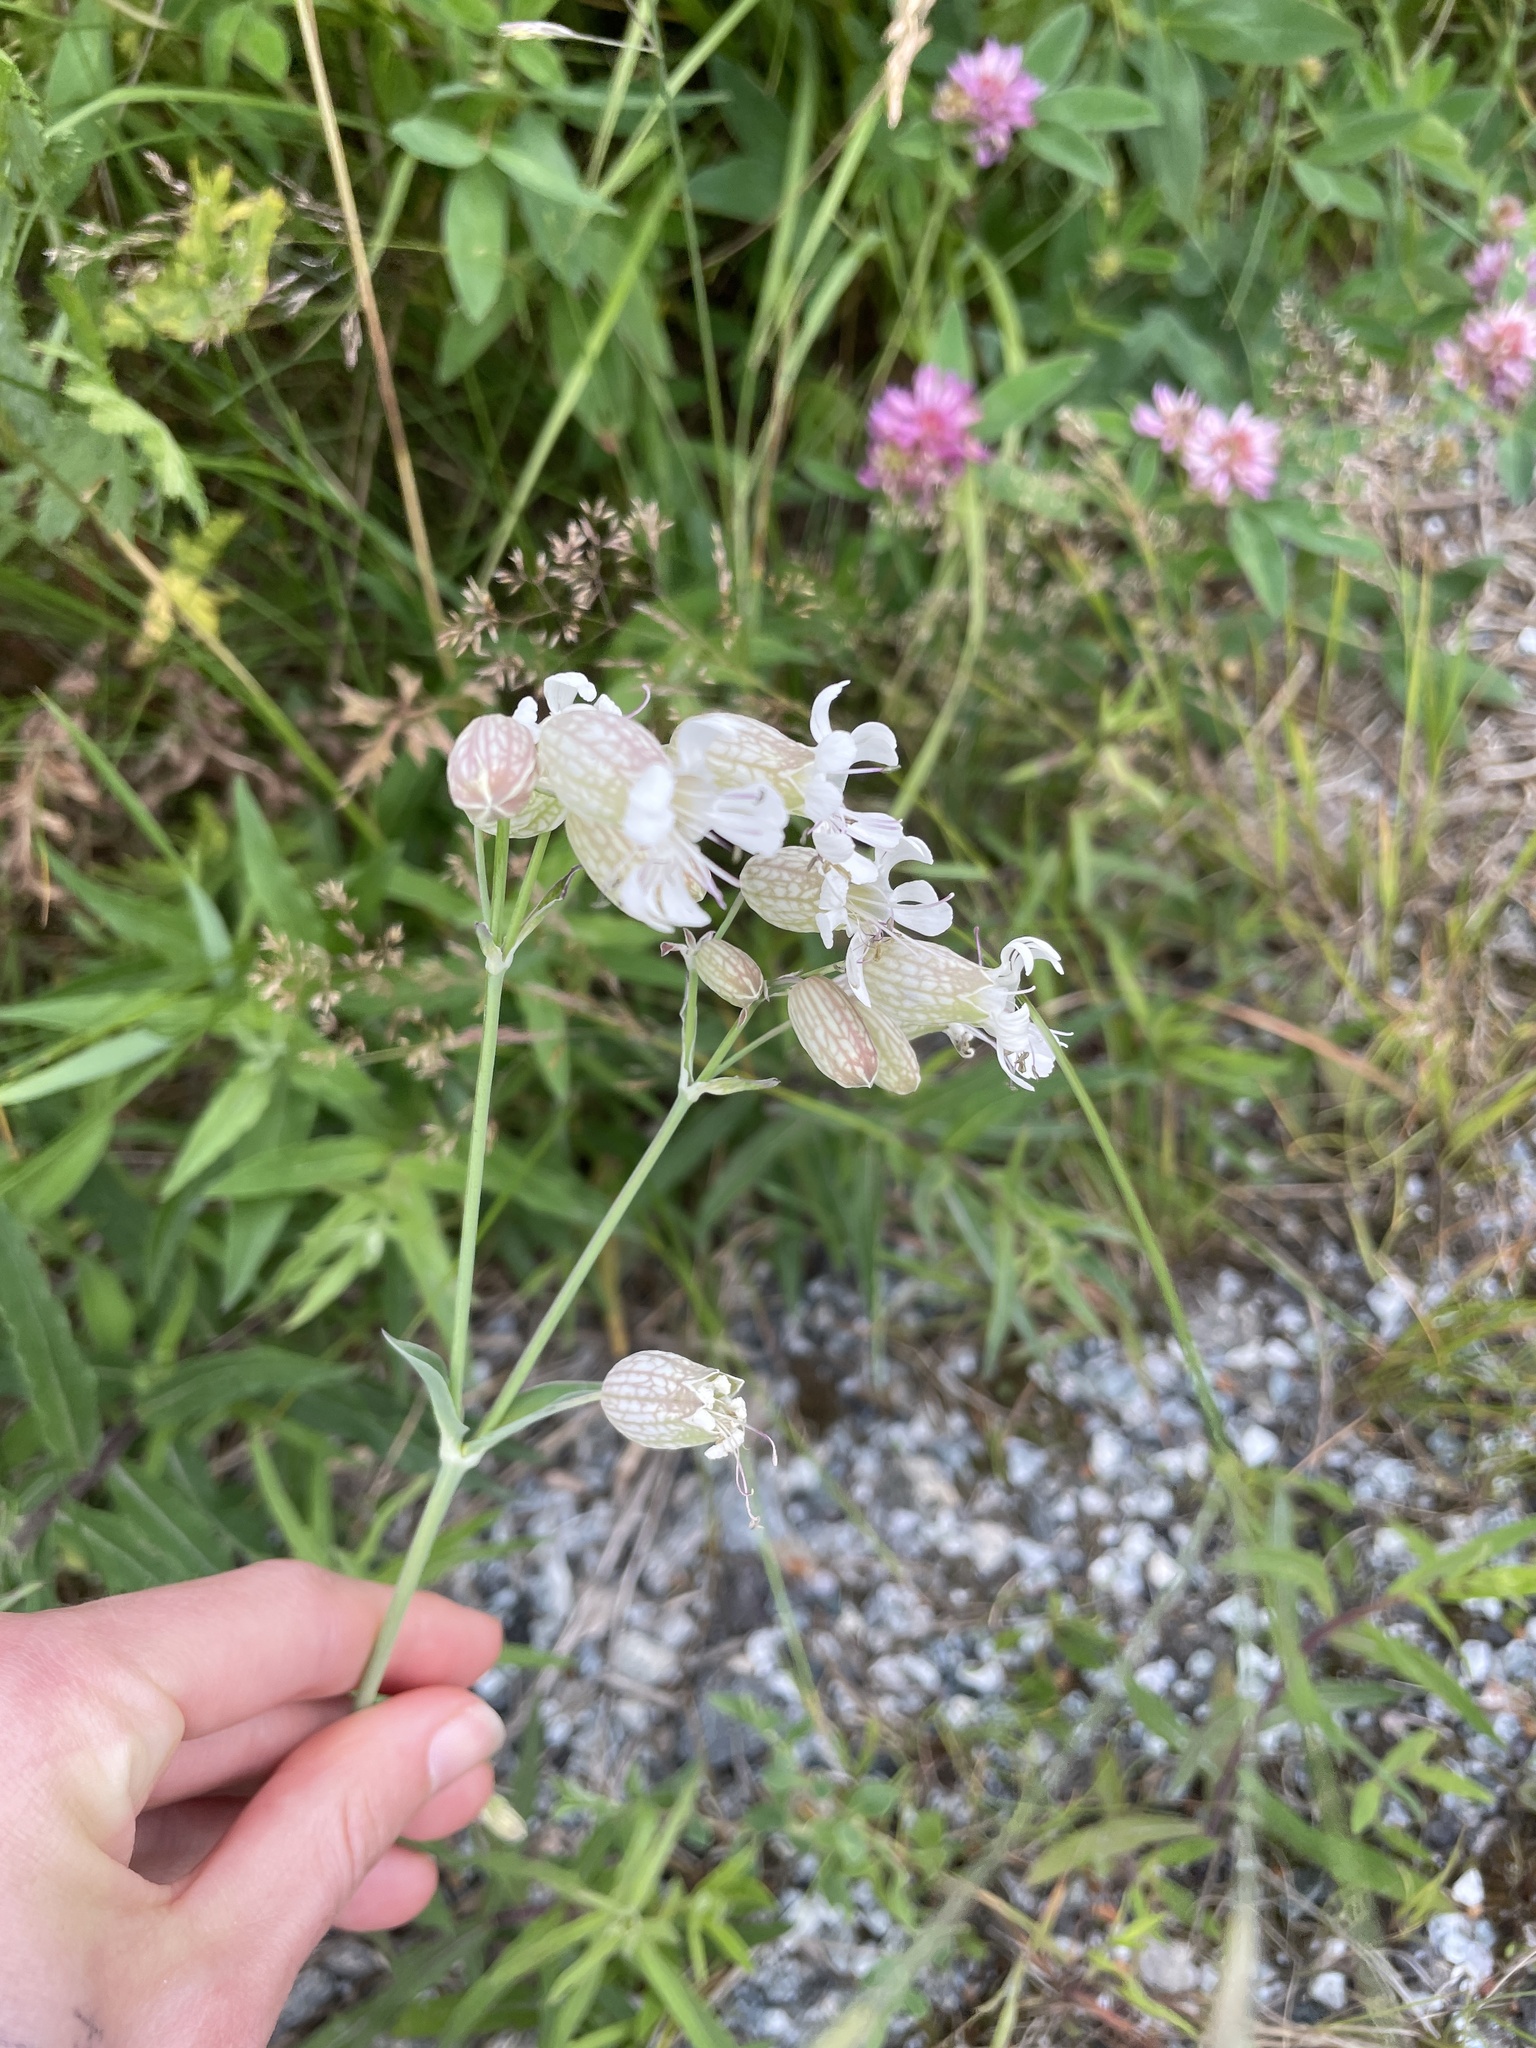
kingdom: Plantae
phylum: Tracheophyta
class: Magnoliopsida
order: Caryophyllales
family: Caryophyllaceae
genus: Silene
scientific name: Silene vulgaris
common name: Bladder campion
